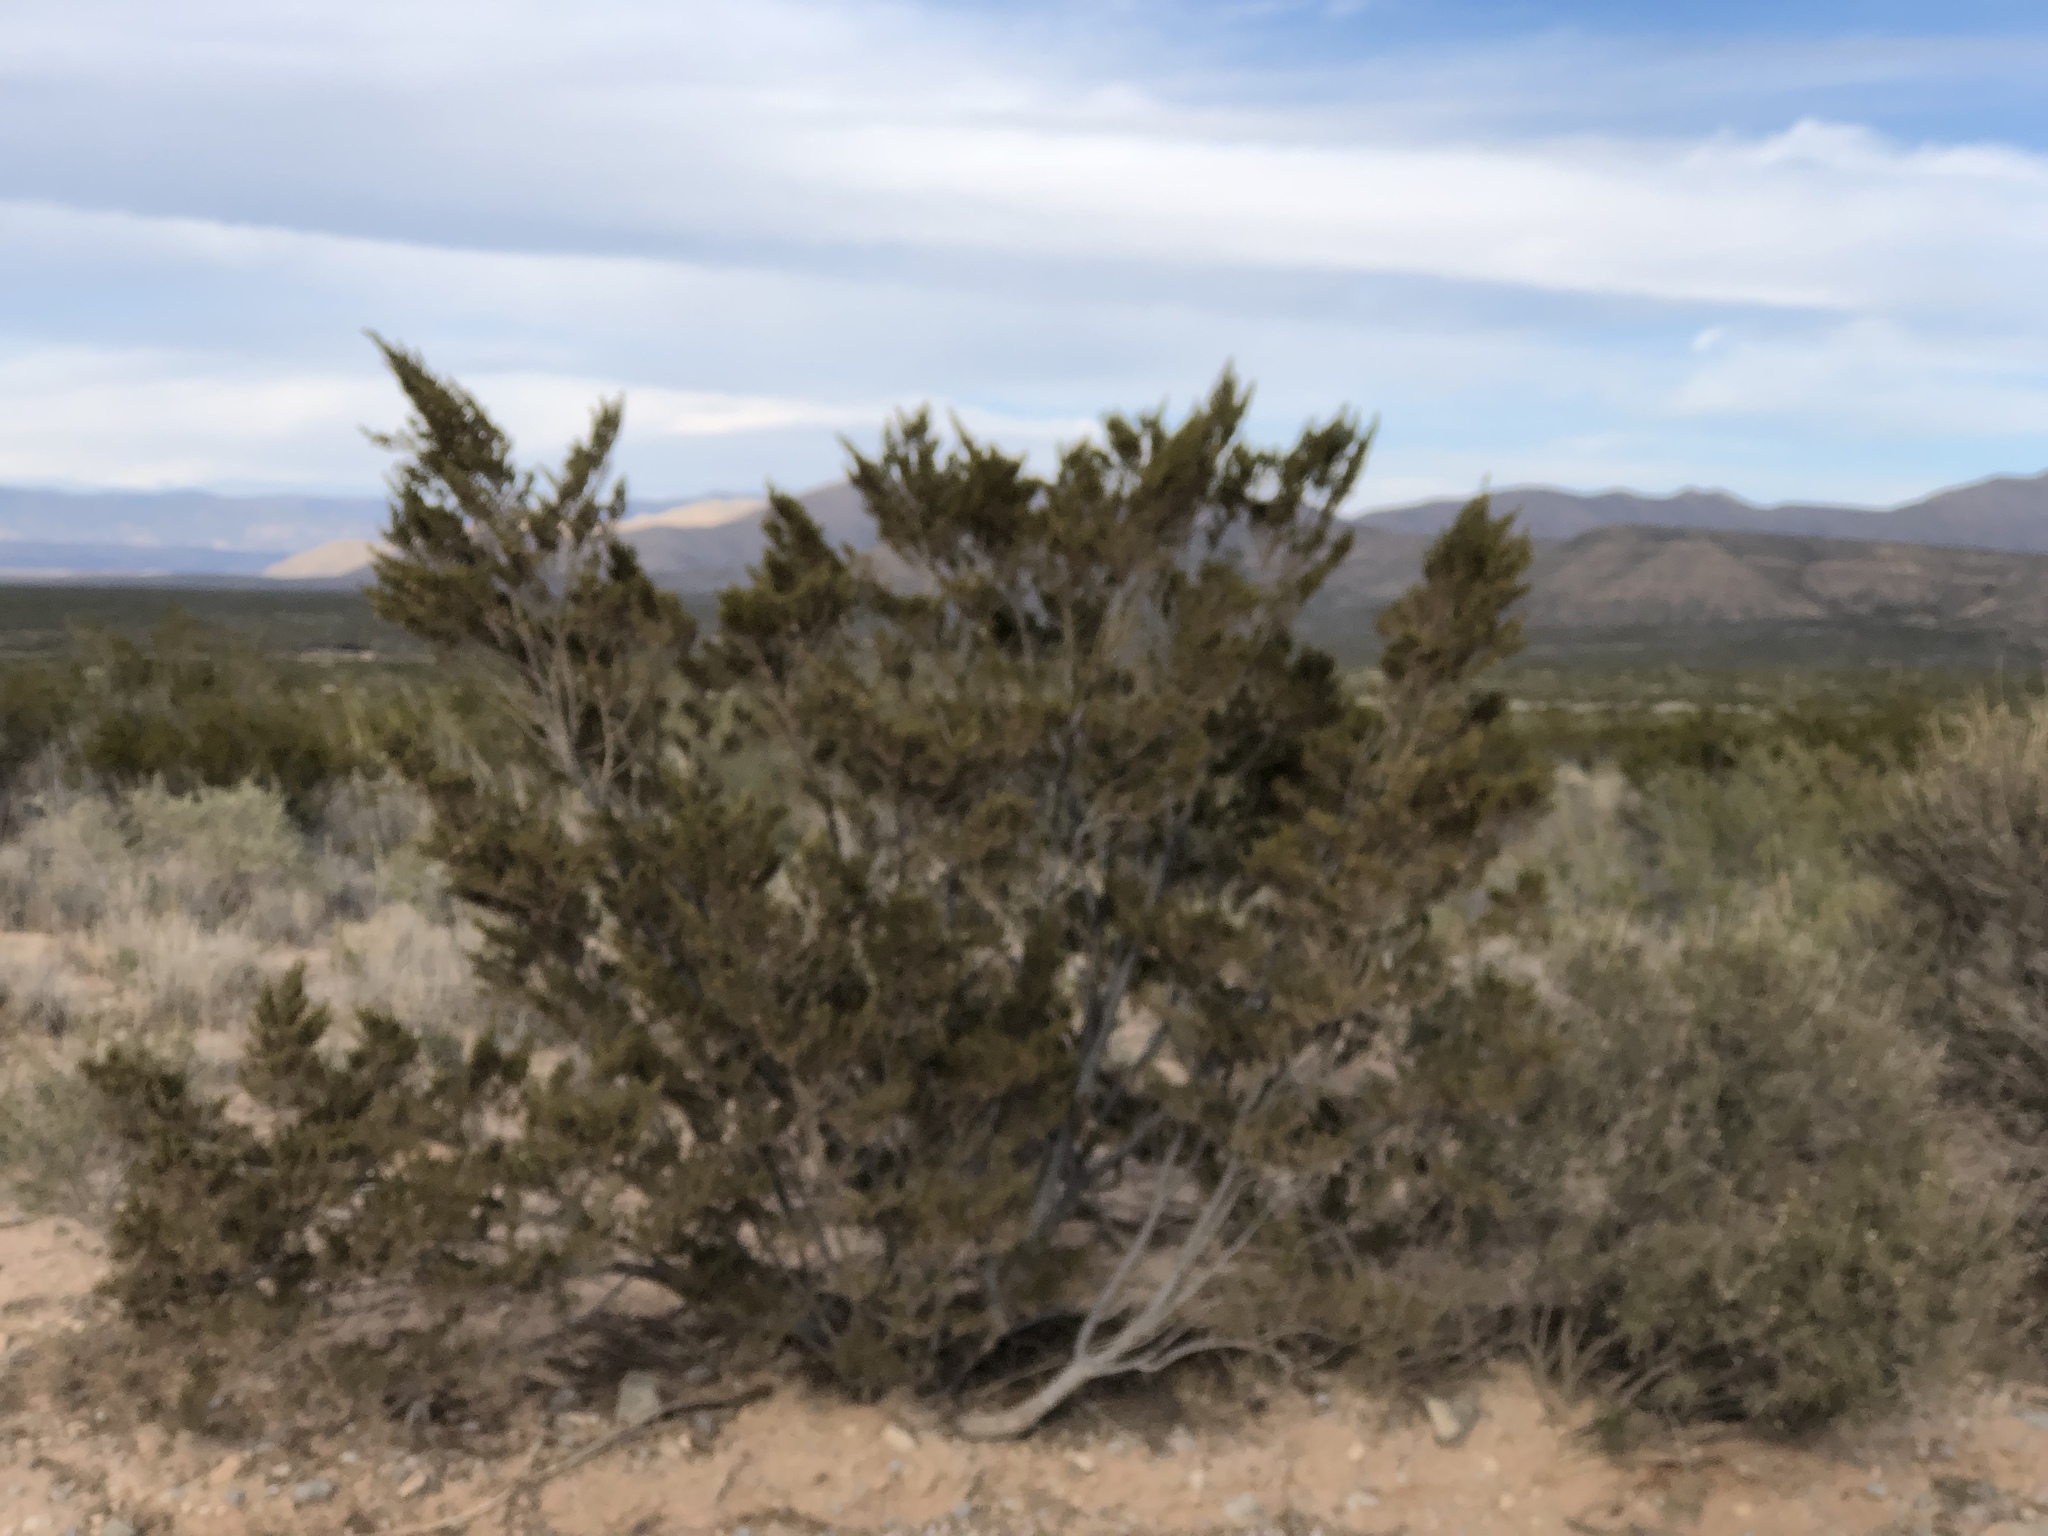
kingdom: Plantae
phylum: Tracheophyta
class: Magnoliopsida
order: Zygophyllales
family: Zygophyllaceae
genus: Larrea
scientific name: Larrea tridentata
